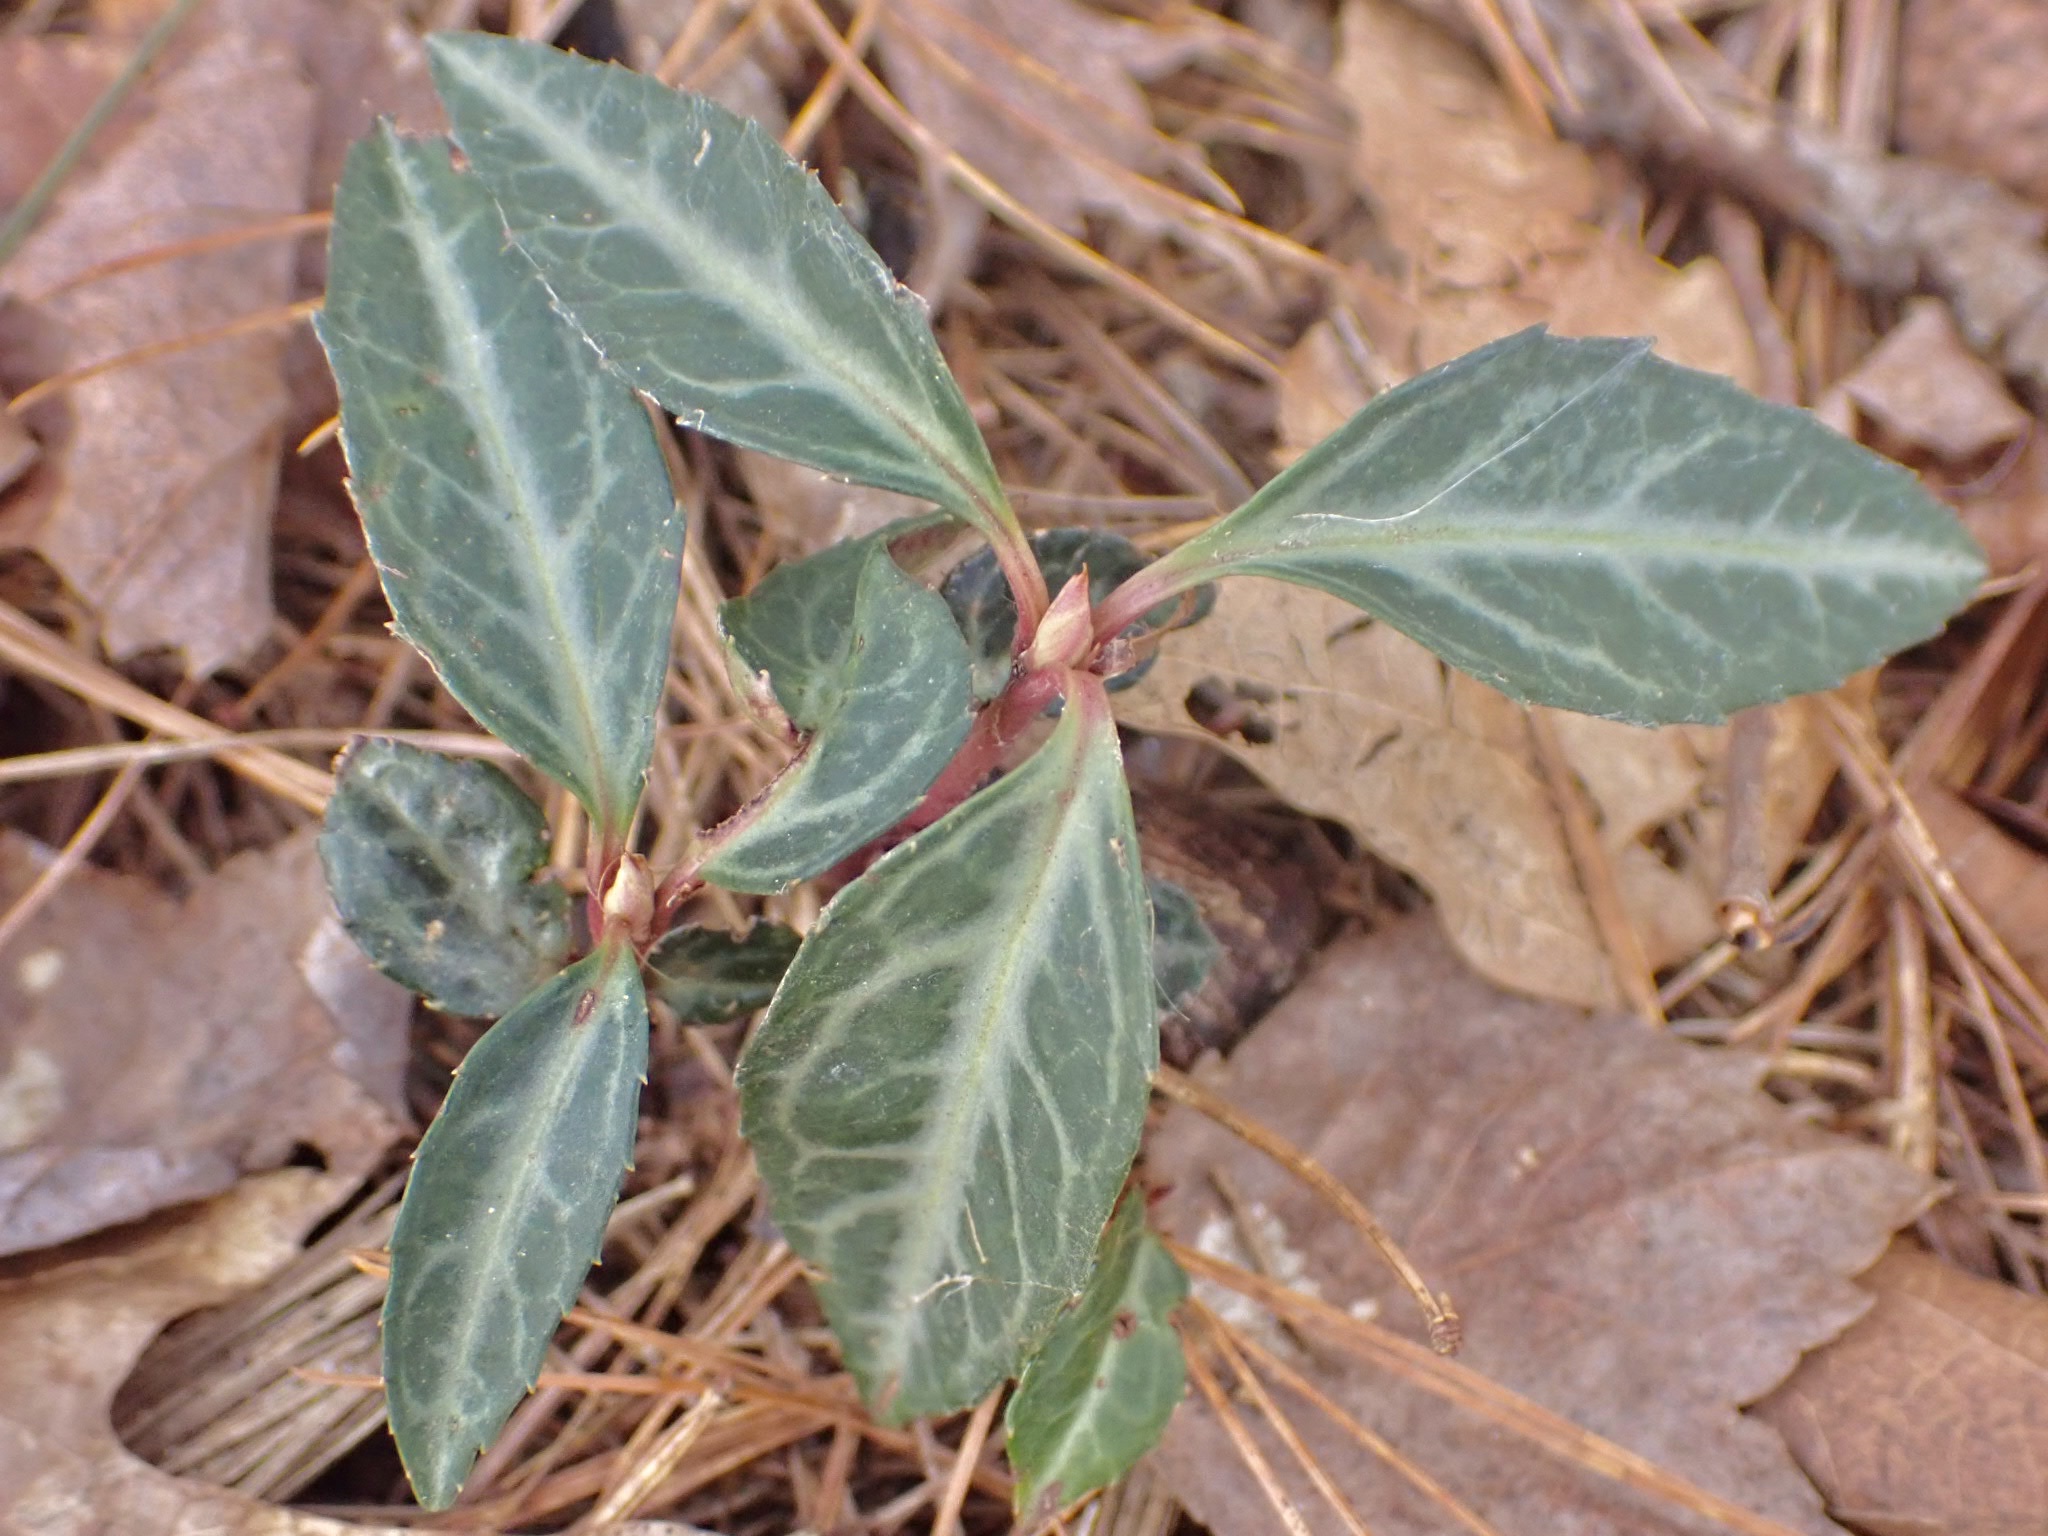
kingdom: Plantae
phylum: Tracheophyta
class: Magnoliopsida
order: Ericales
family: Ericaceae
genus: Chimaphila
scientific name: Chimaphila maculata
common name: Spotted pipsissewa
